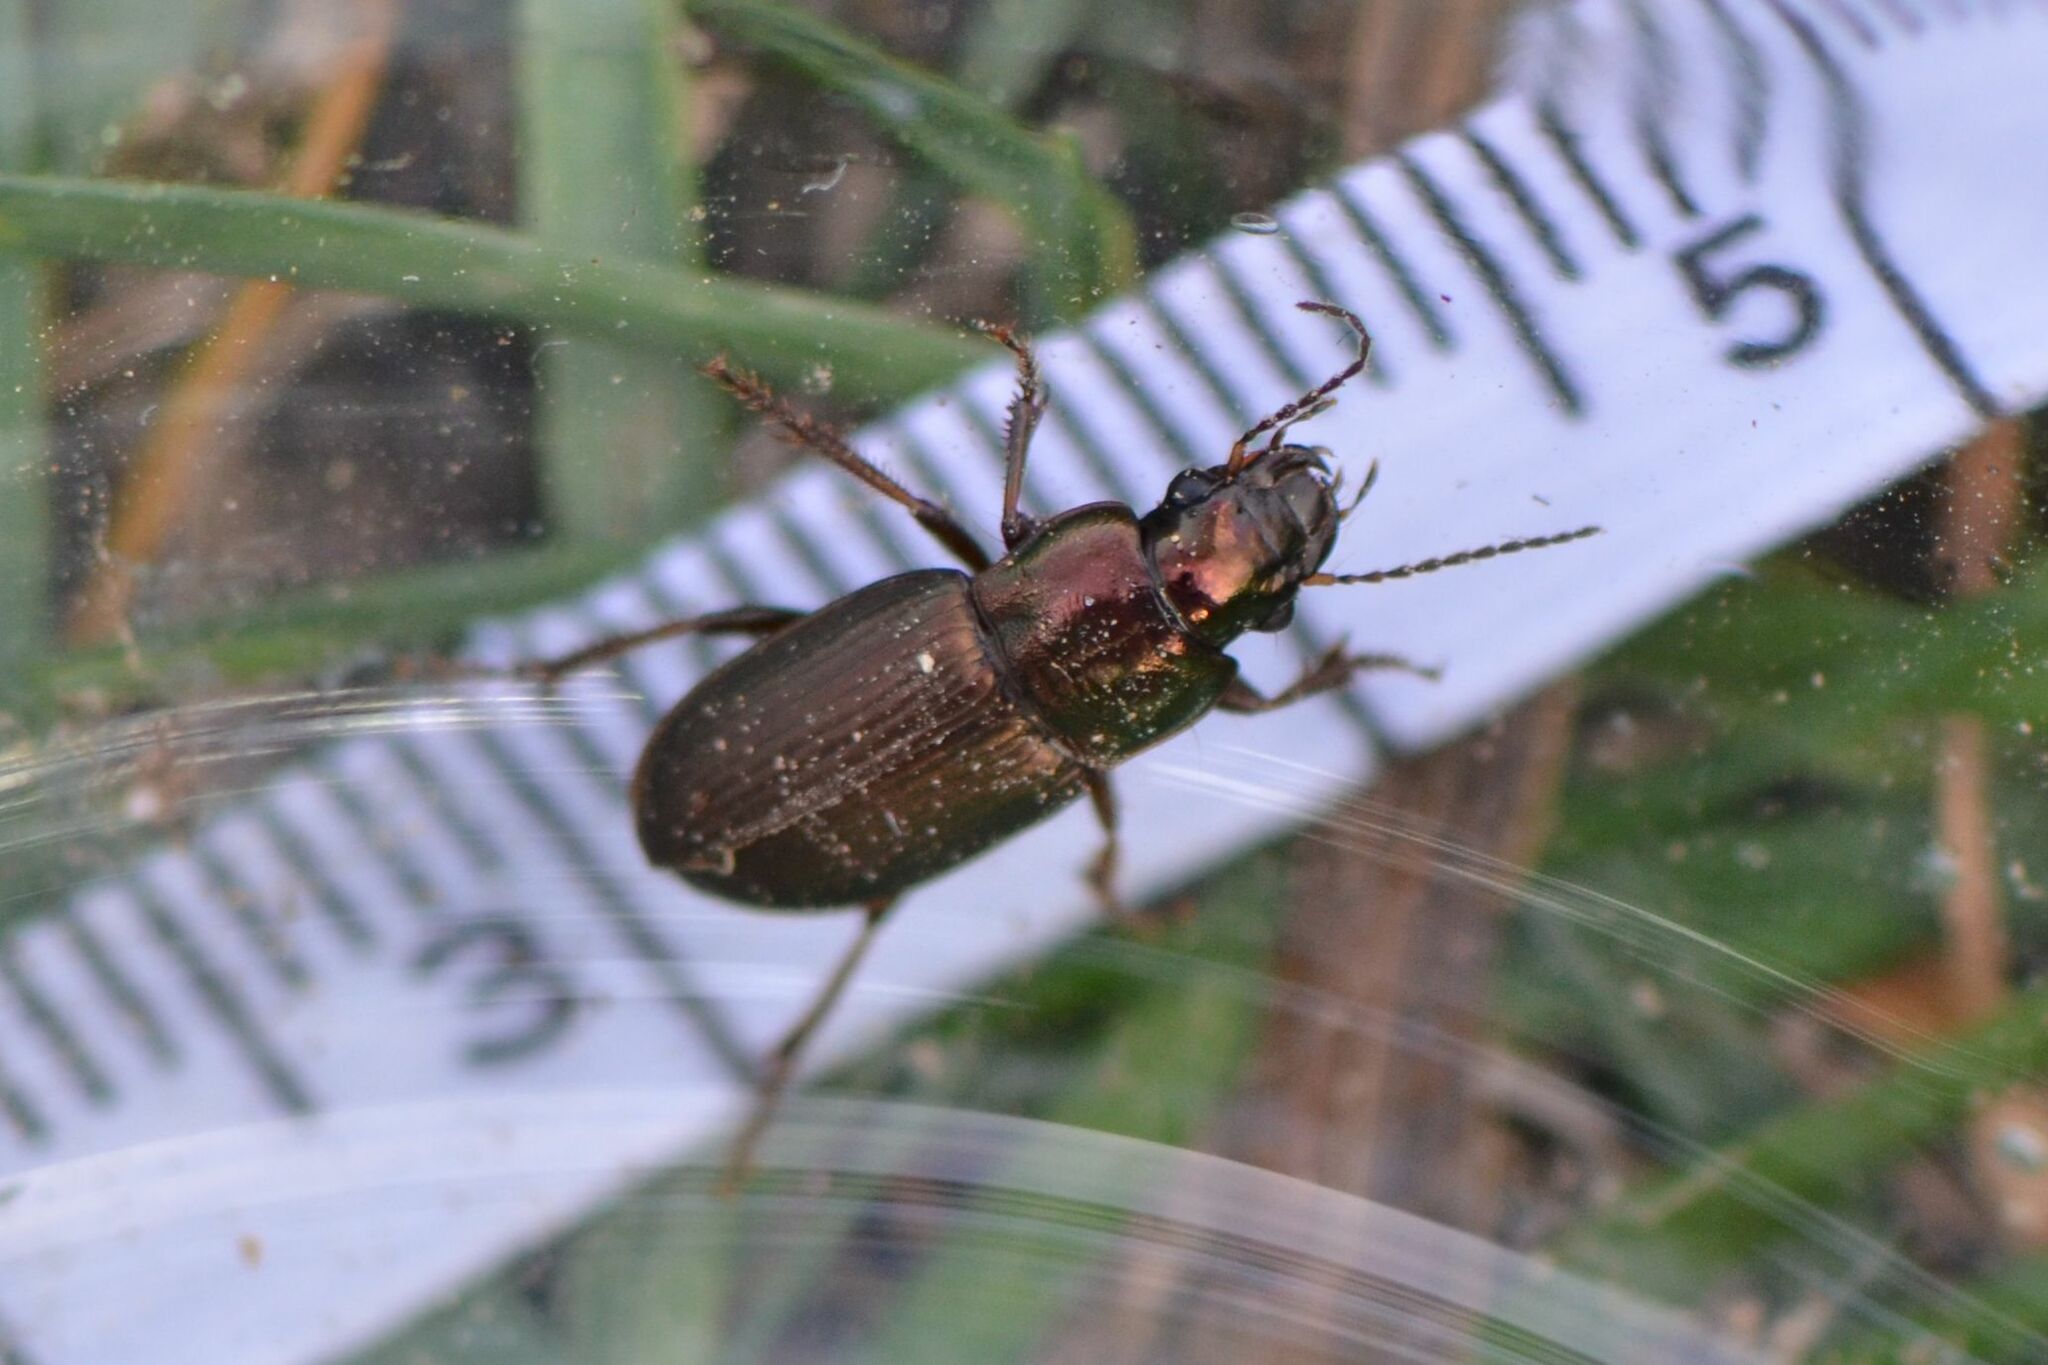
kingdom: Animalia
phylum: Arthropoda
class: Insecta
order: Coleoptera
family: Carabidae
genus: Harpalus
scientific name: Harpalus distinguendus
